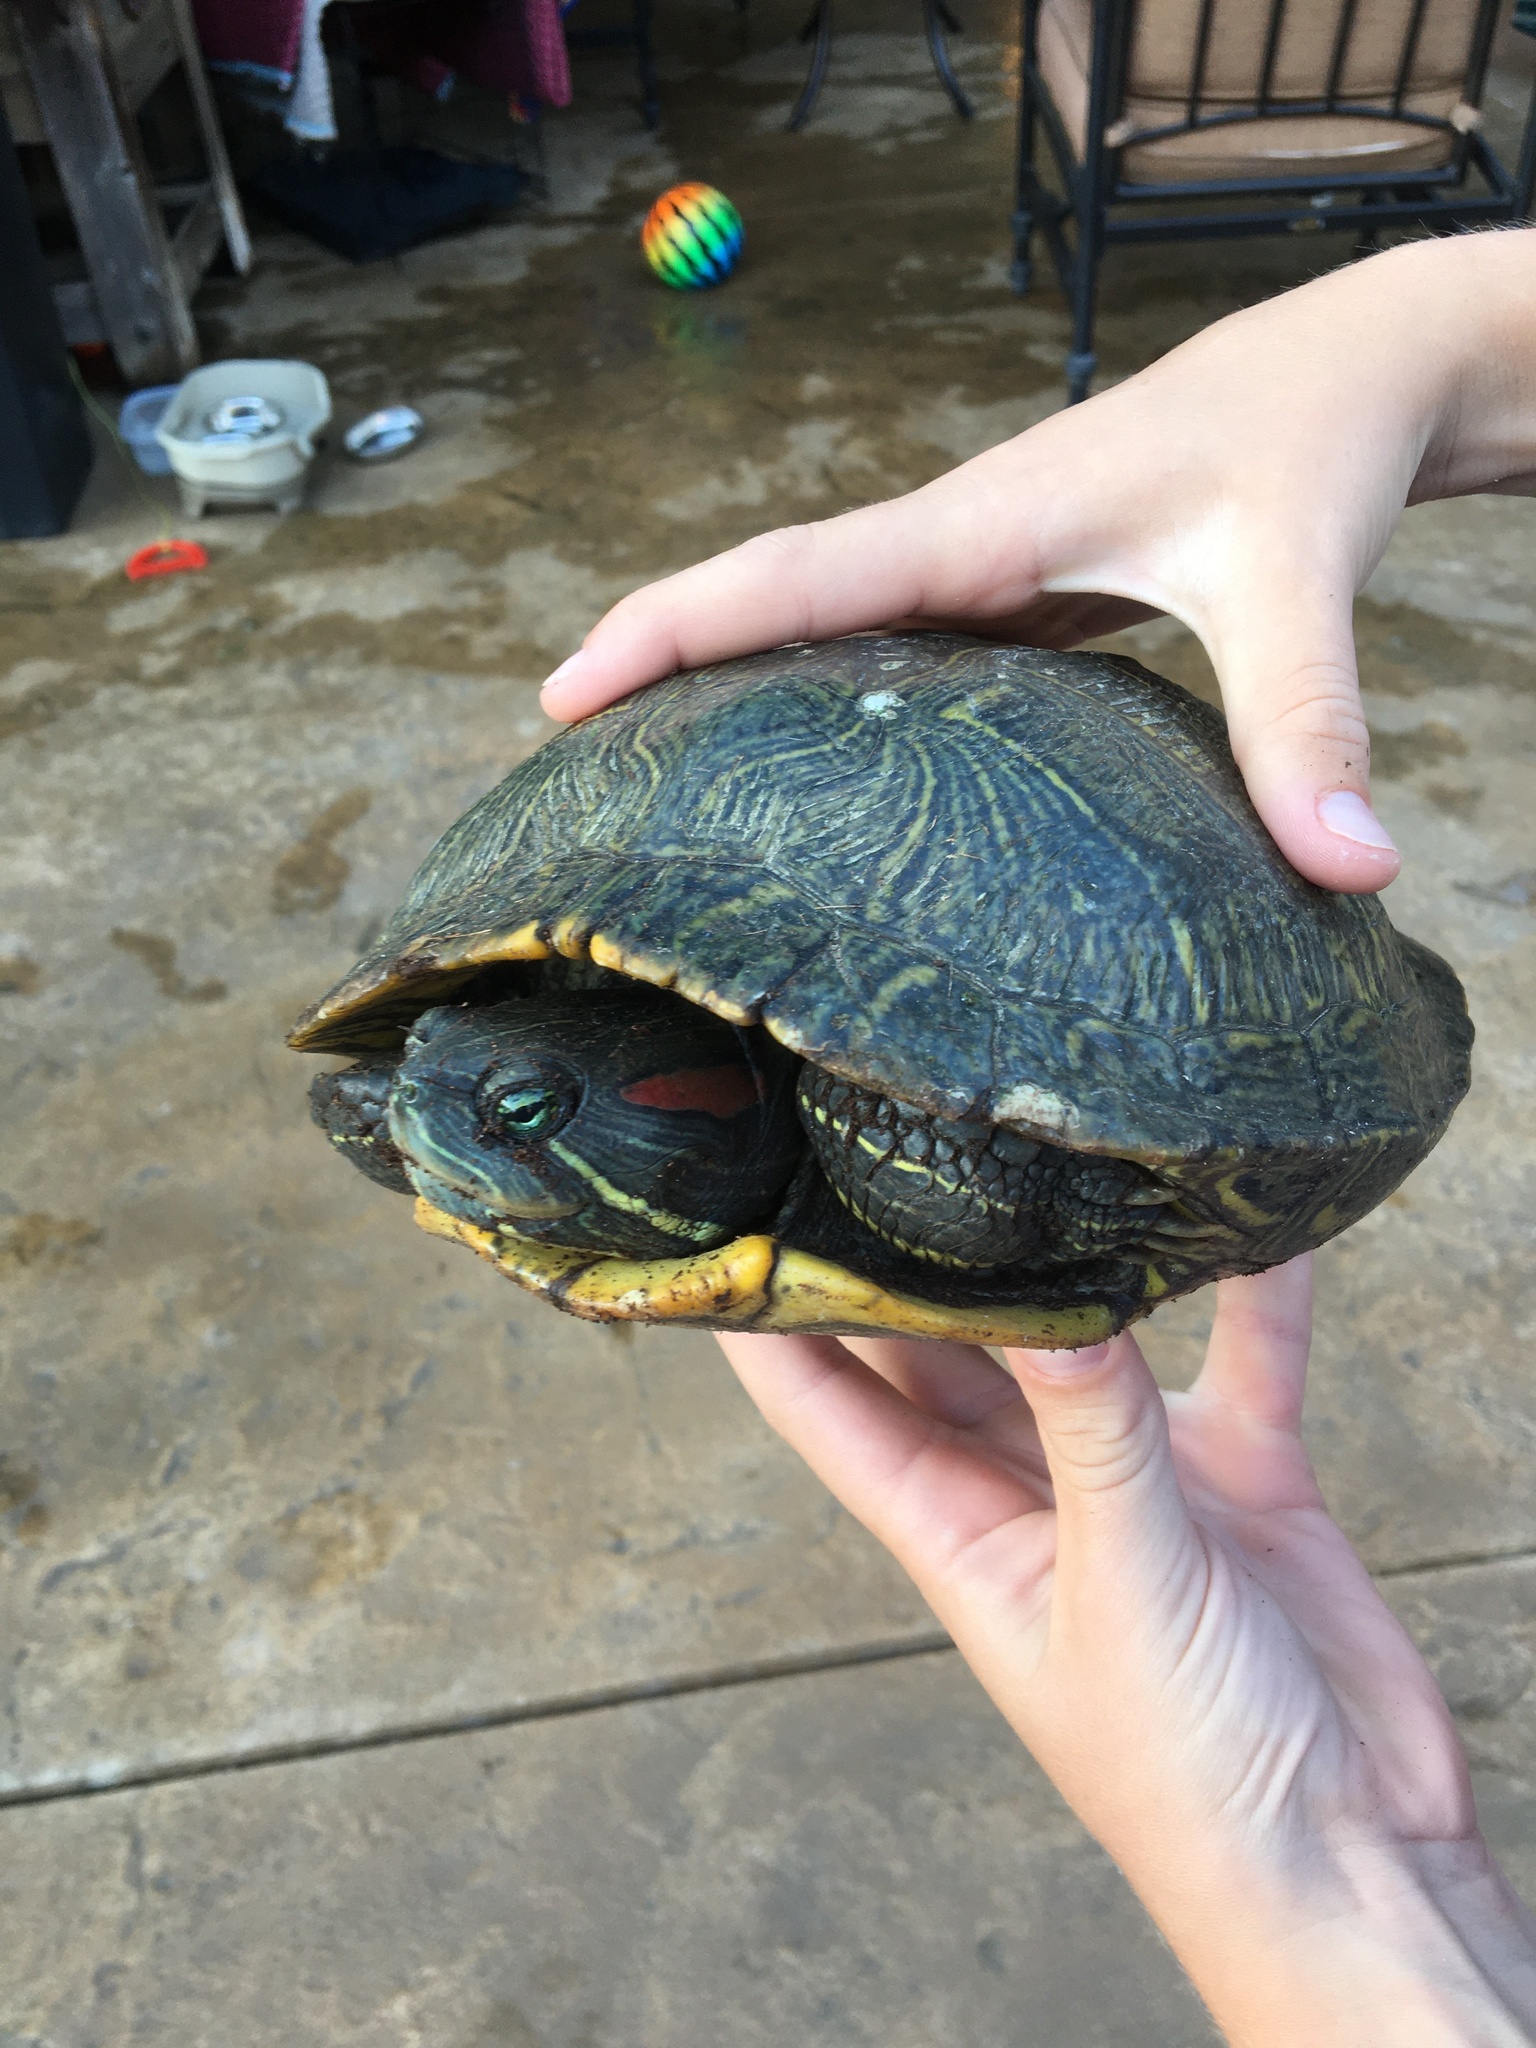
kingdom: Animalia
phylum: Chordata
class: Testudines
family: Emydidae
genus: Trachemys
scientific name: Trachemys scripta
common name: Slider
